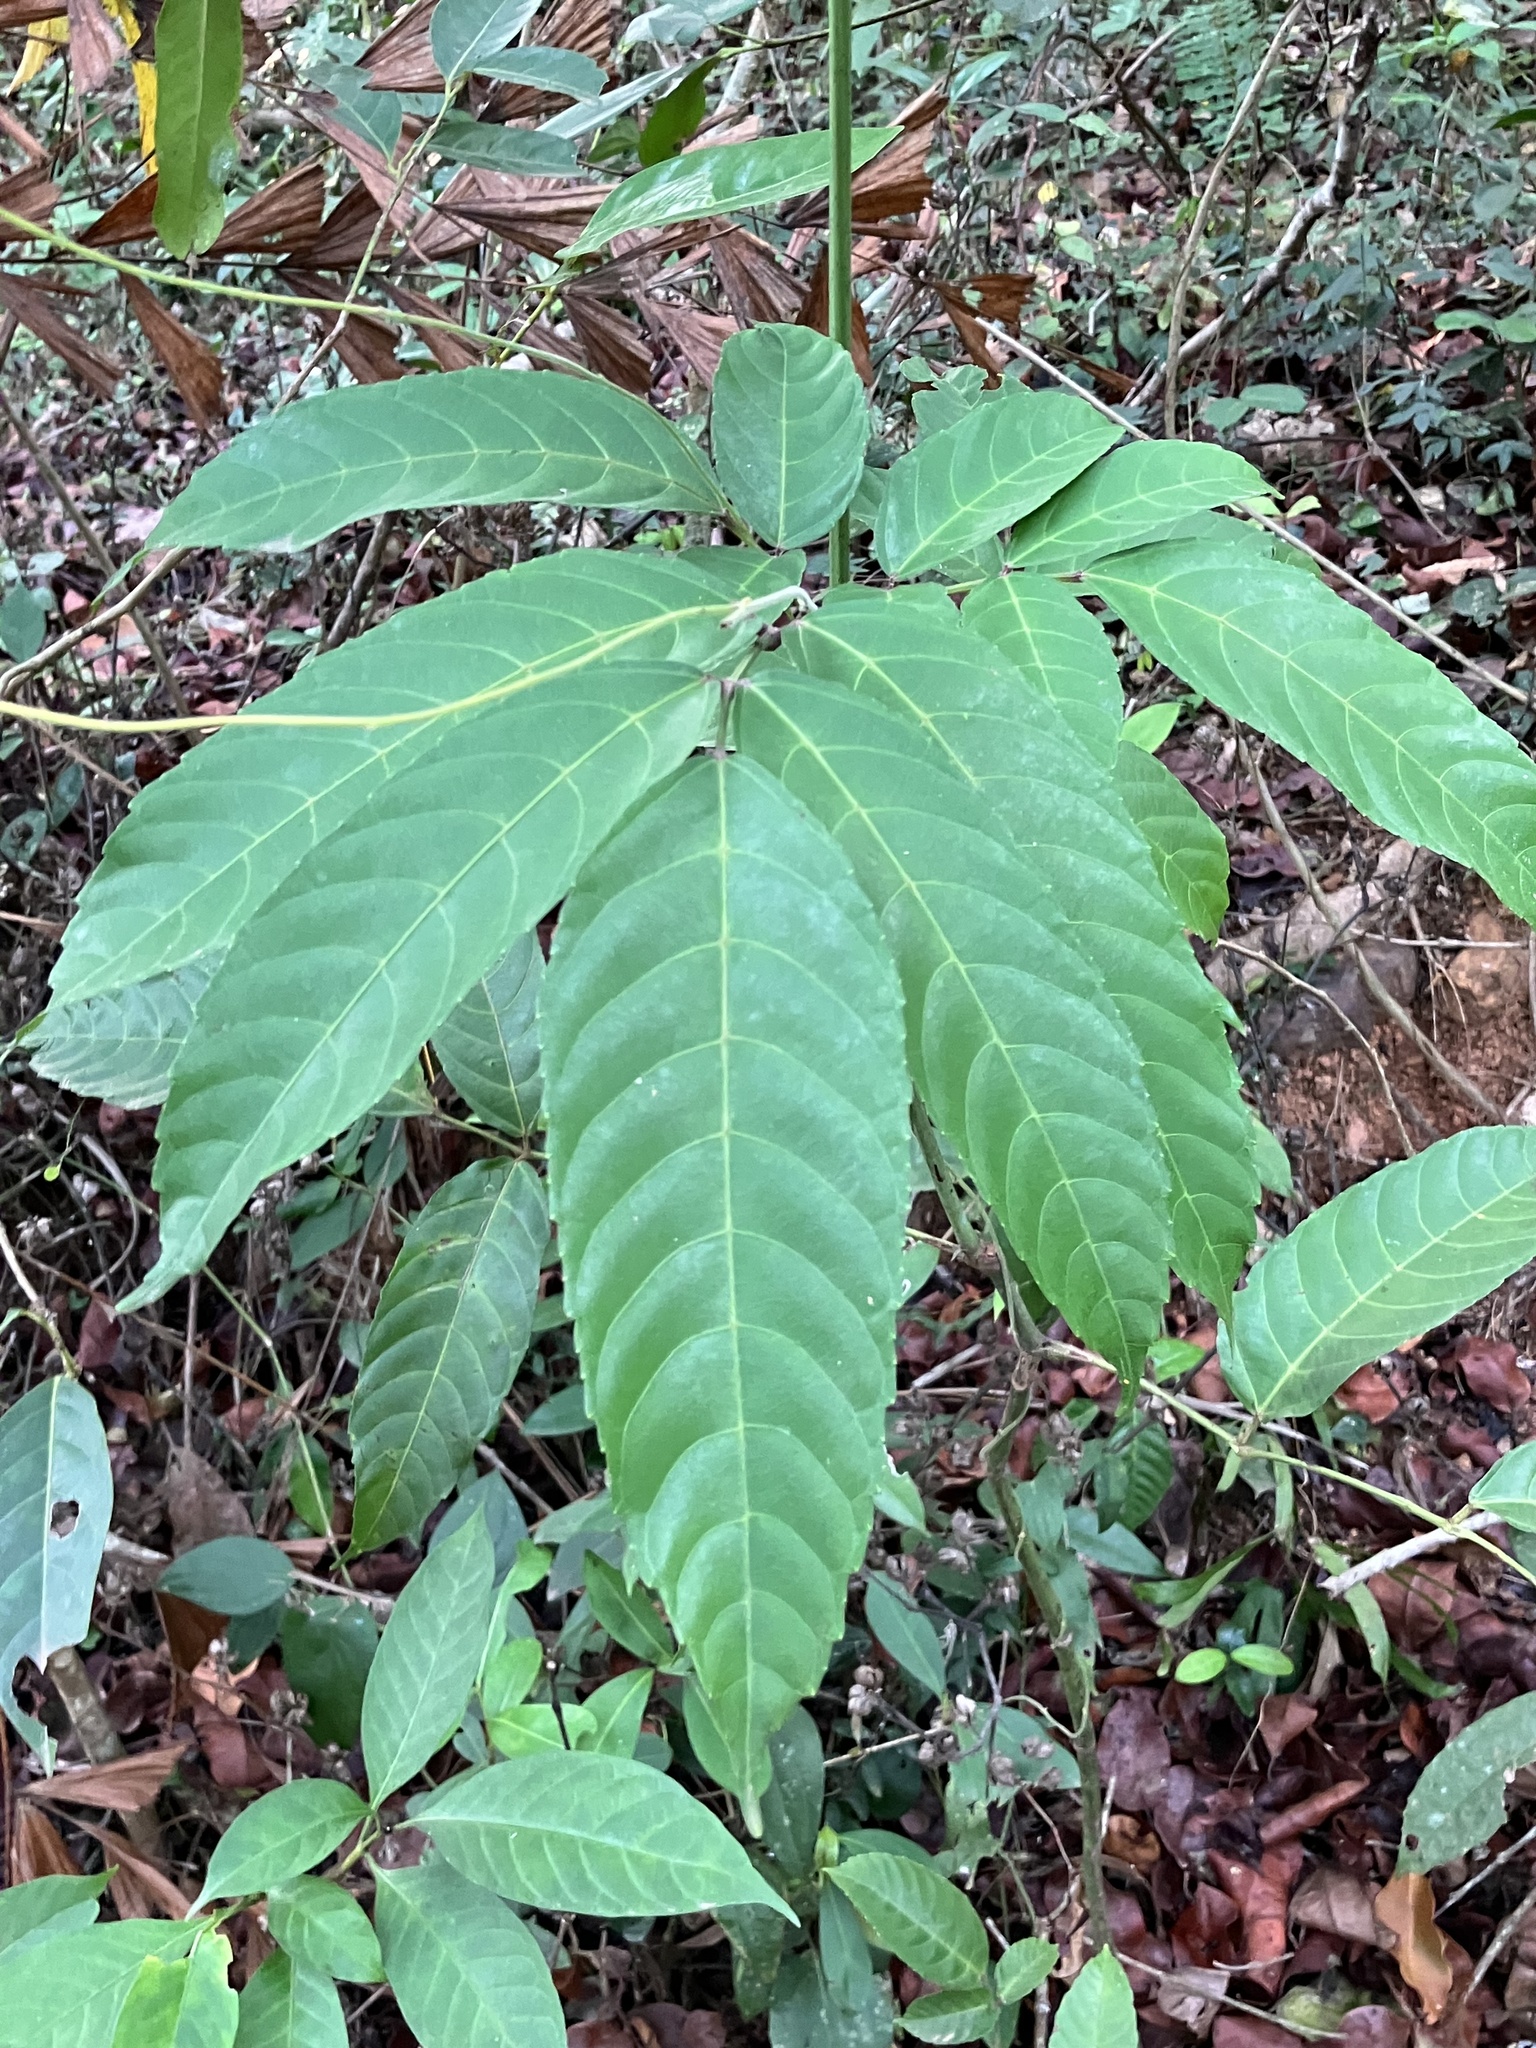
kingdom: Plantae
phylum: Tracheophyta
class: Magnoliopsida
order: Vitales
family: Vitaceae
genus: Leea
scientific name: Leea indica
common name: Bandicoot-berry
